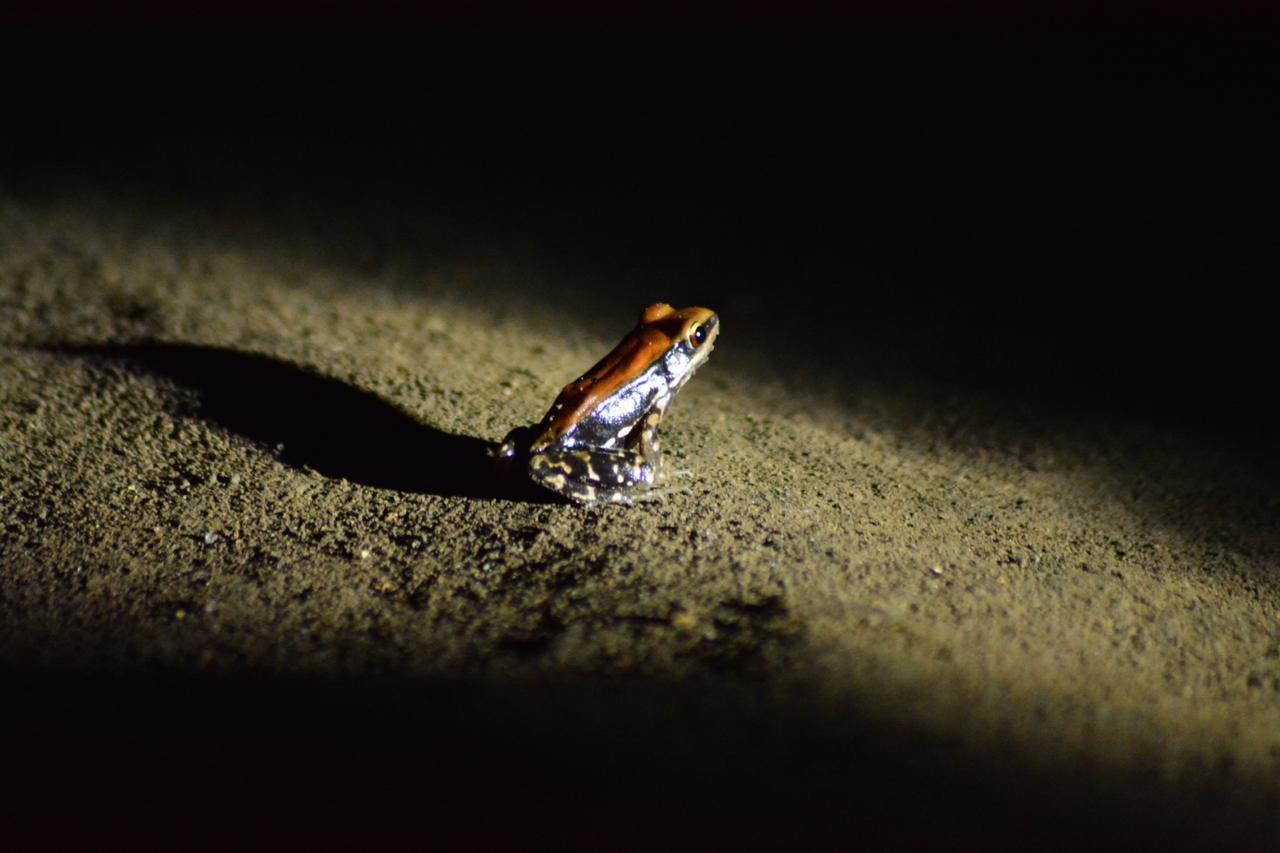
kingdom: Animalia
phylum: Chordata
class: Amphibia
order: Anura
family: Ranidae
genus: Hydrophylax
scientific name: Hydrophylax bahuvistara
